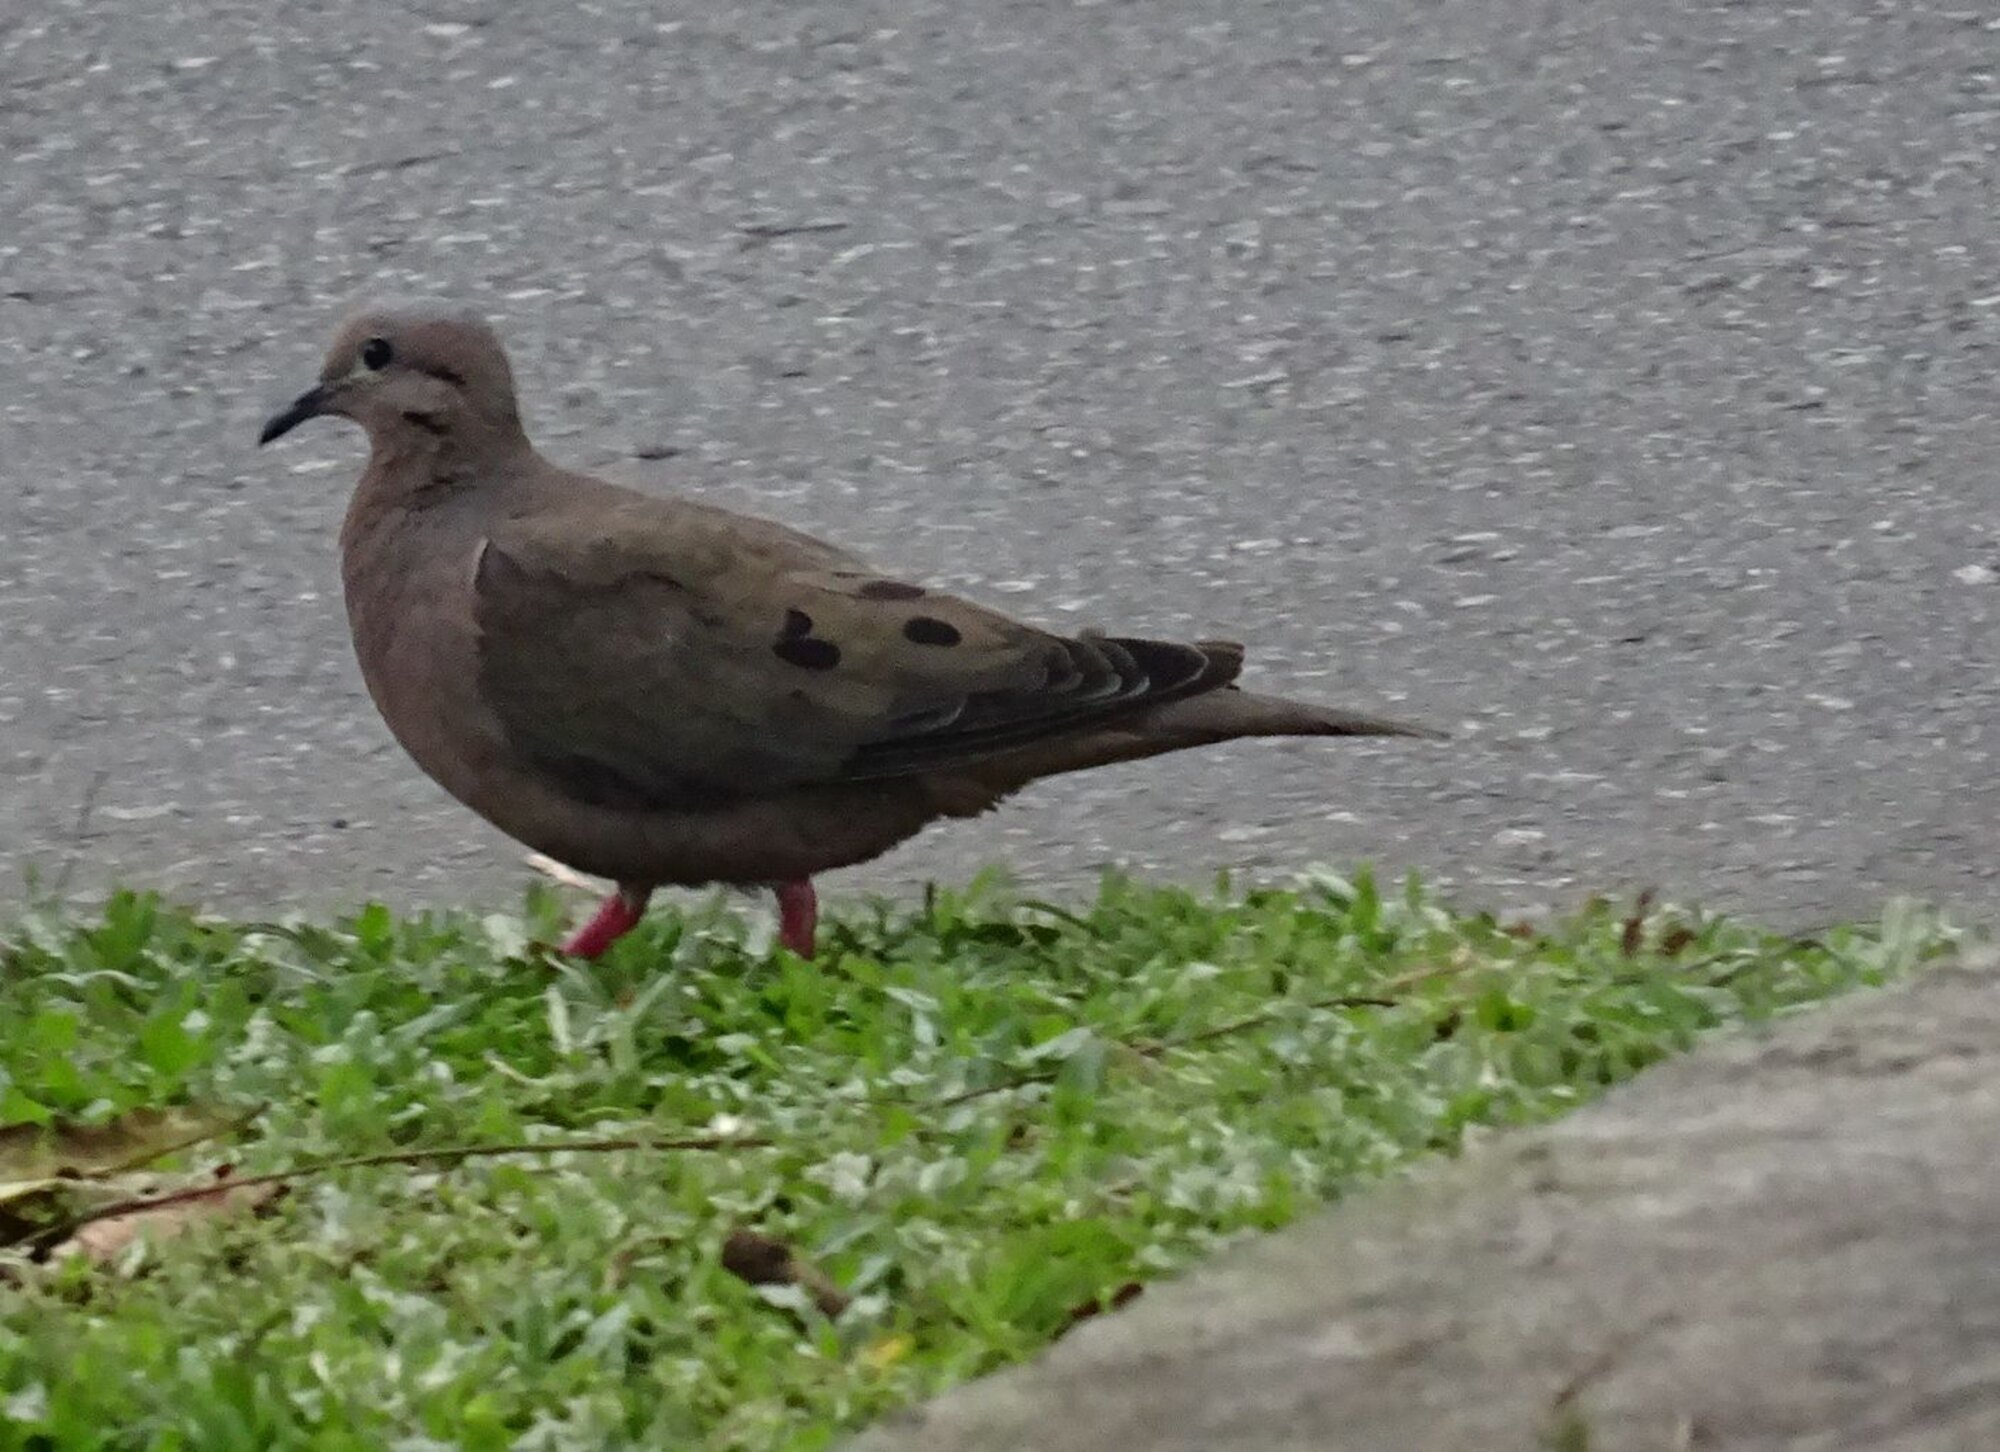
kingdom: Animalia
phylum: Chordata
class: Aves
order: Columbiformes
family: Columbidae
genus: Zenaida
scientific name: Zenaida auriculata
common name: Eared dove
